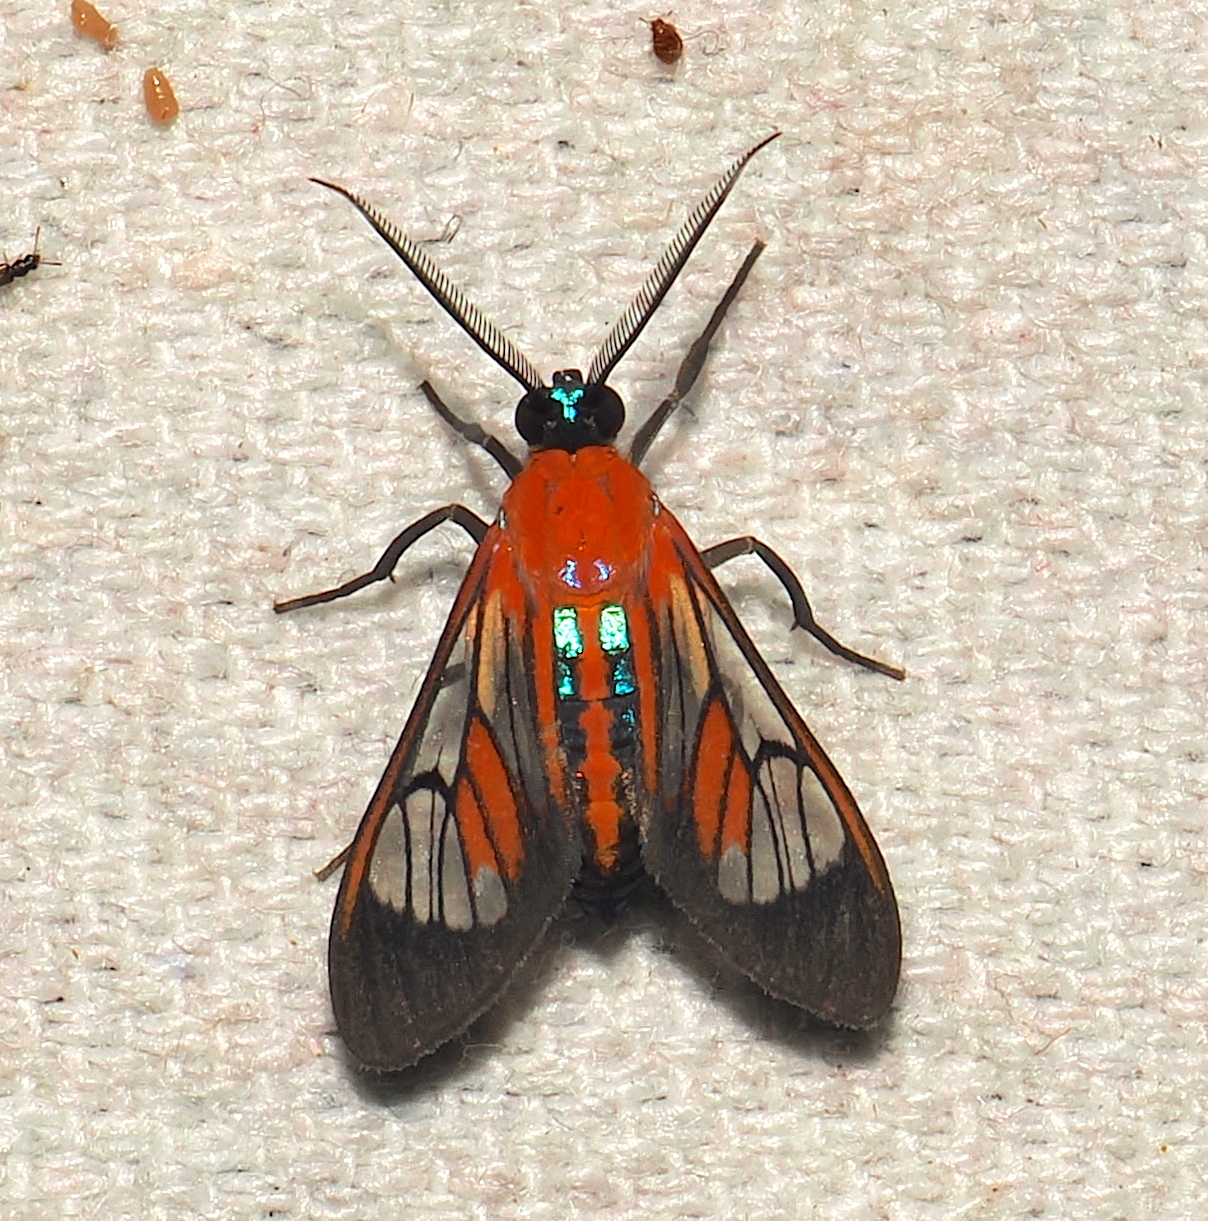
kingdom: Animalia
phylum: Arthropoda
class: Insecta
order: Lepidoptera
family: Erebidae
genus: Cosmosoma
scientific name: Cosmosoma achemon
